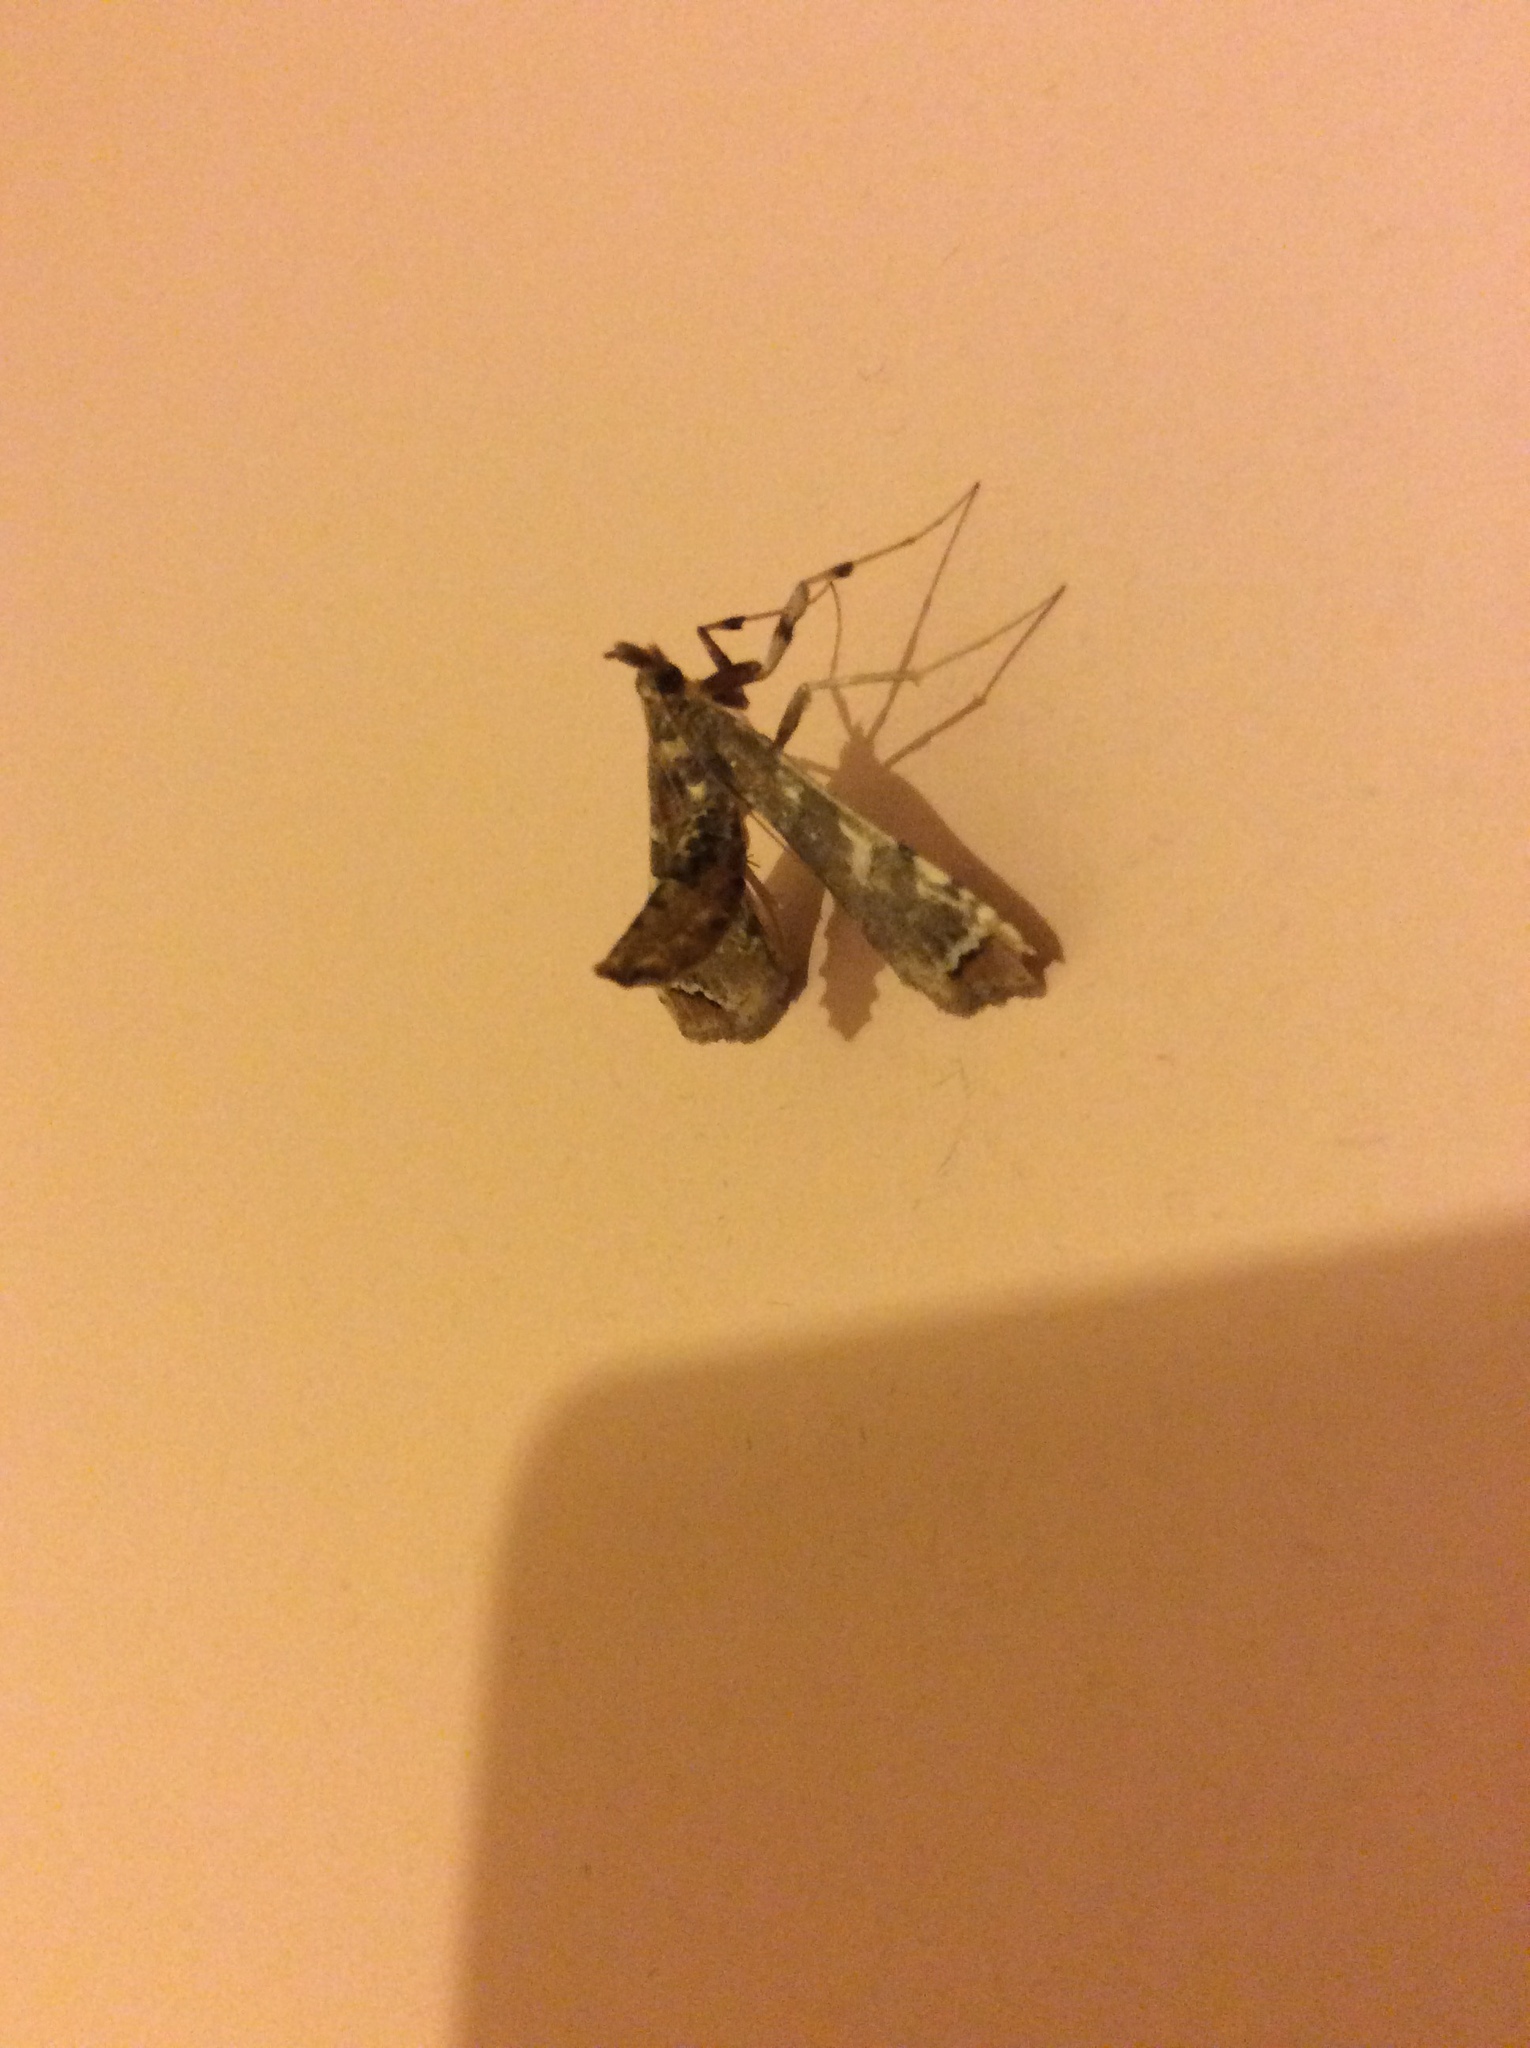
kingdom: Animalia
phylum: Arthropoda
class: Insecta
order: Lepidoptera
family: Crambidae
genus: Sceliodes
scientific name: Sceliodes cordalis
